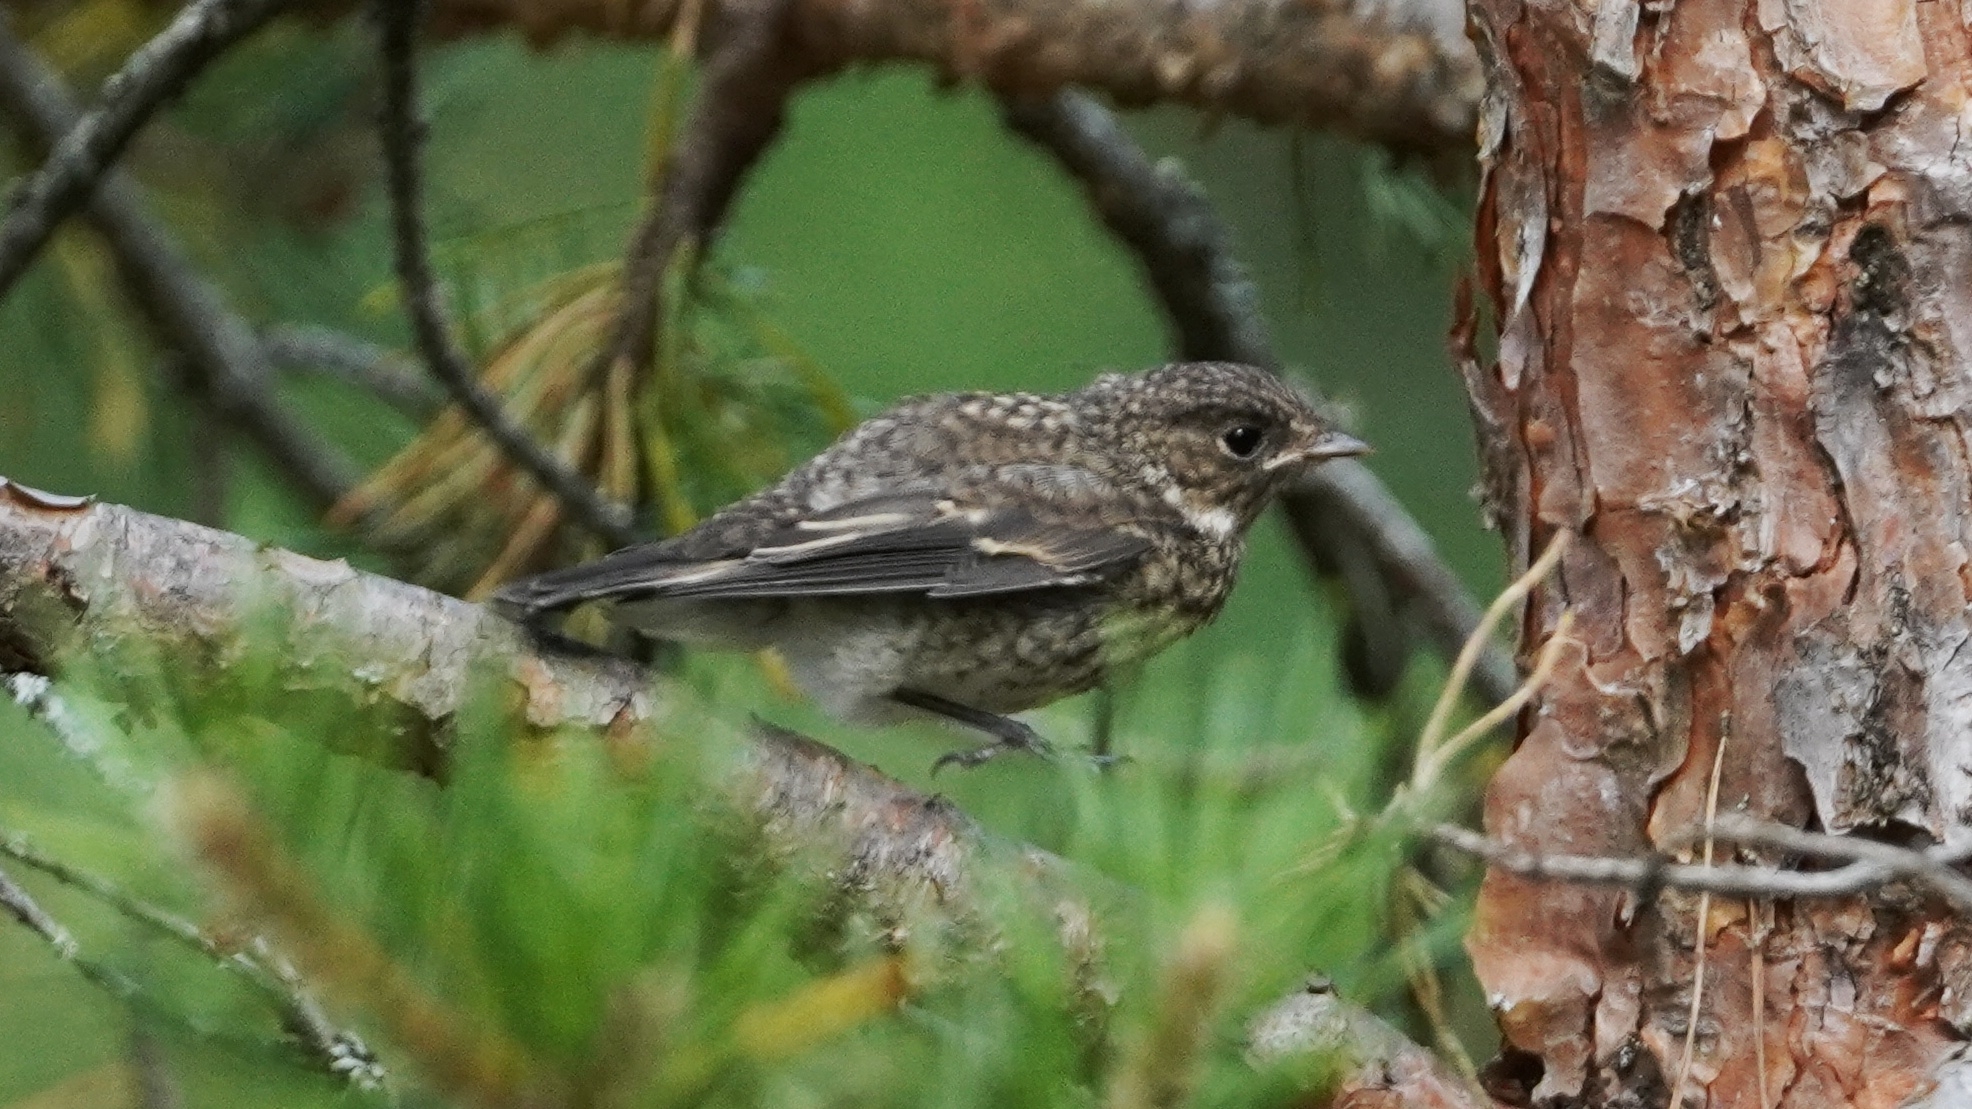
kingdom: Animalia
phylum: Chordata
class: Aves
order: Passeriformes
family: Muscicapidae
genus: Ficedula
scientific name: Ficedula hypoleuca
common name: European pied flycatcher
